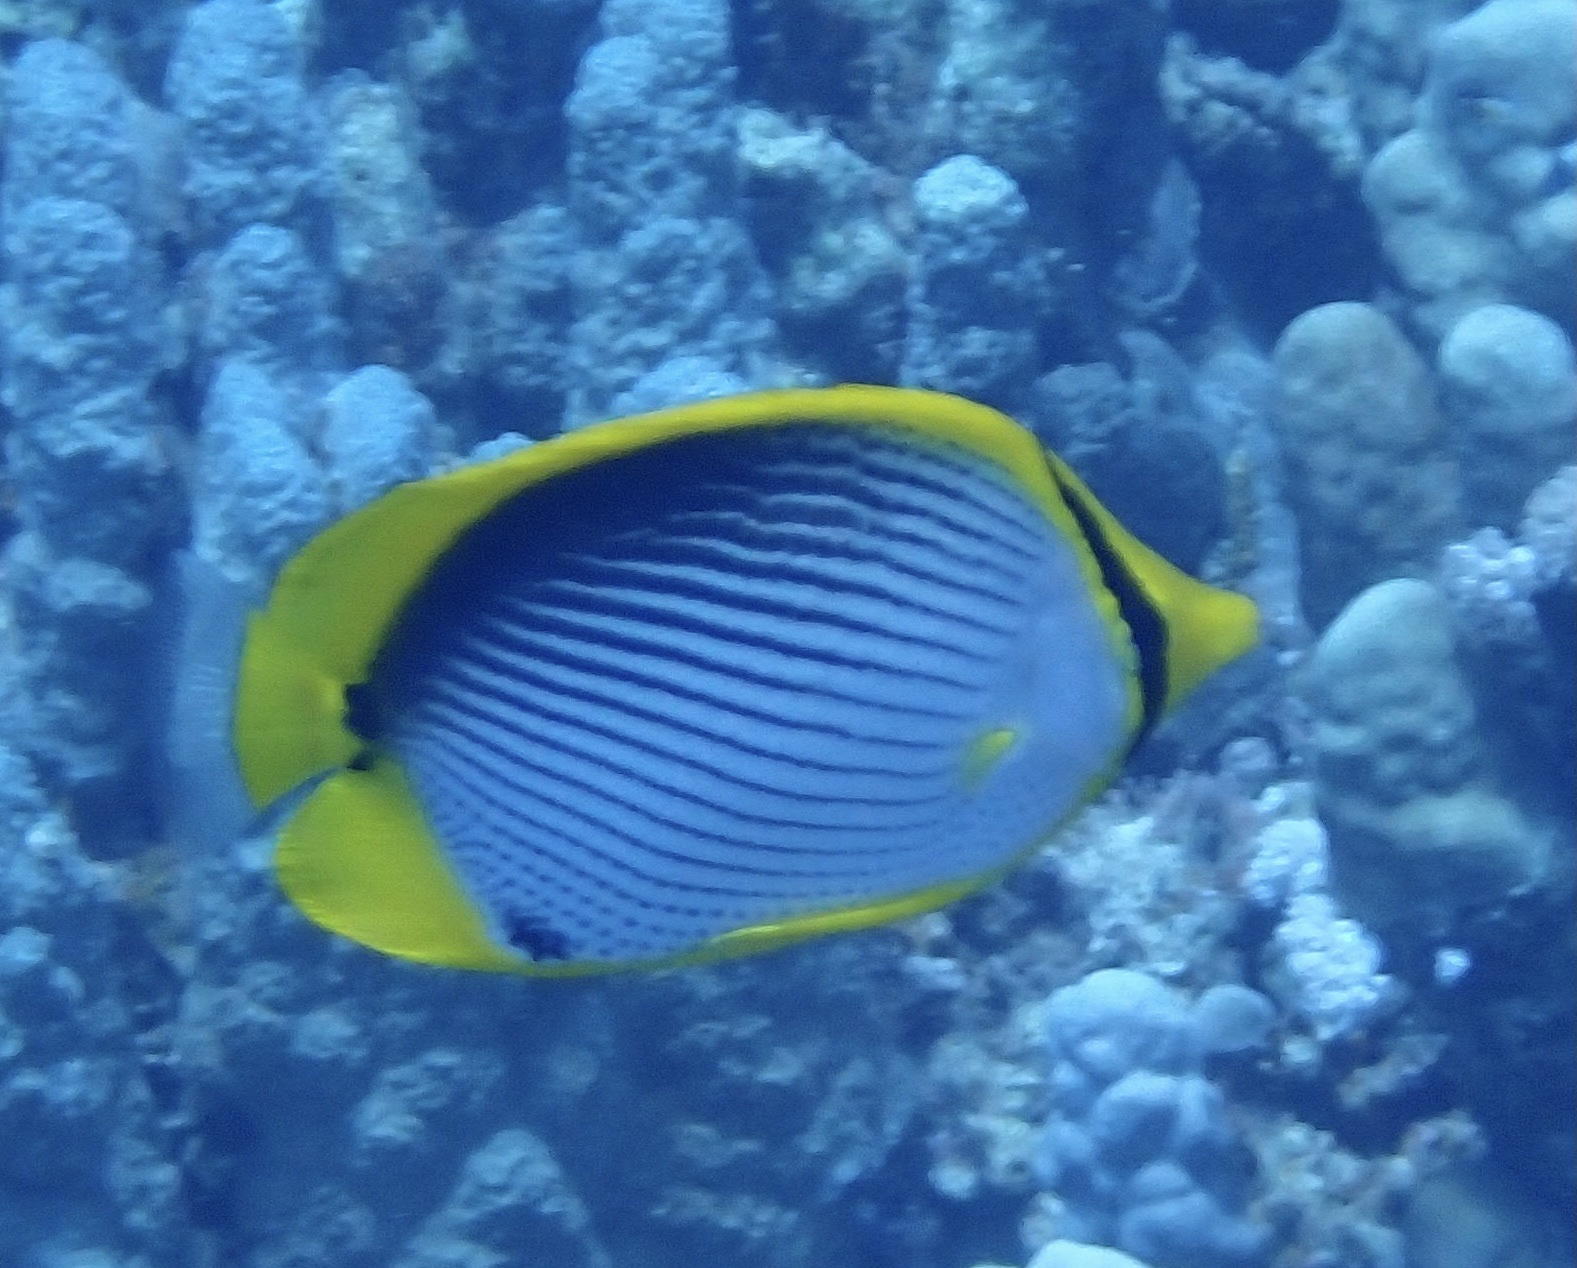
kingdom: Animalia
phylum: Chordata
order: Perciformes
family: Chaetodontidae
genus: Chaetodon
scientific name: Chaetodon melannotus
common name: Blackback butterflyfish
